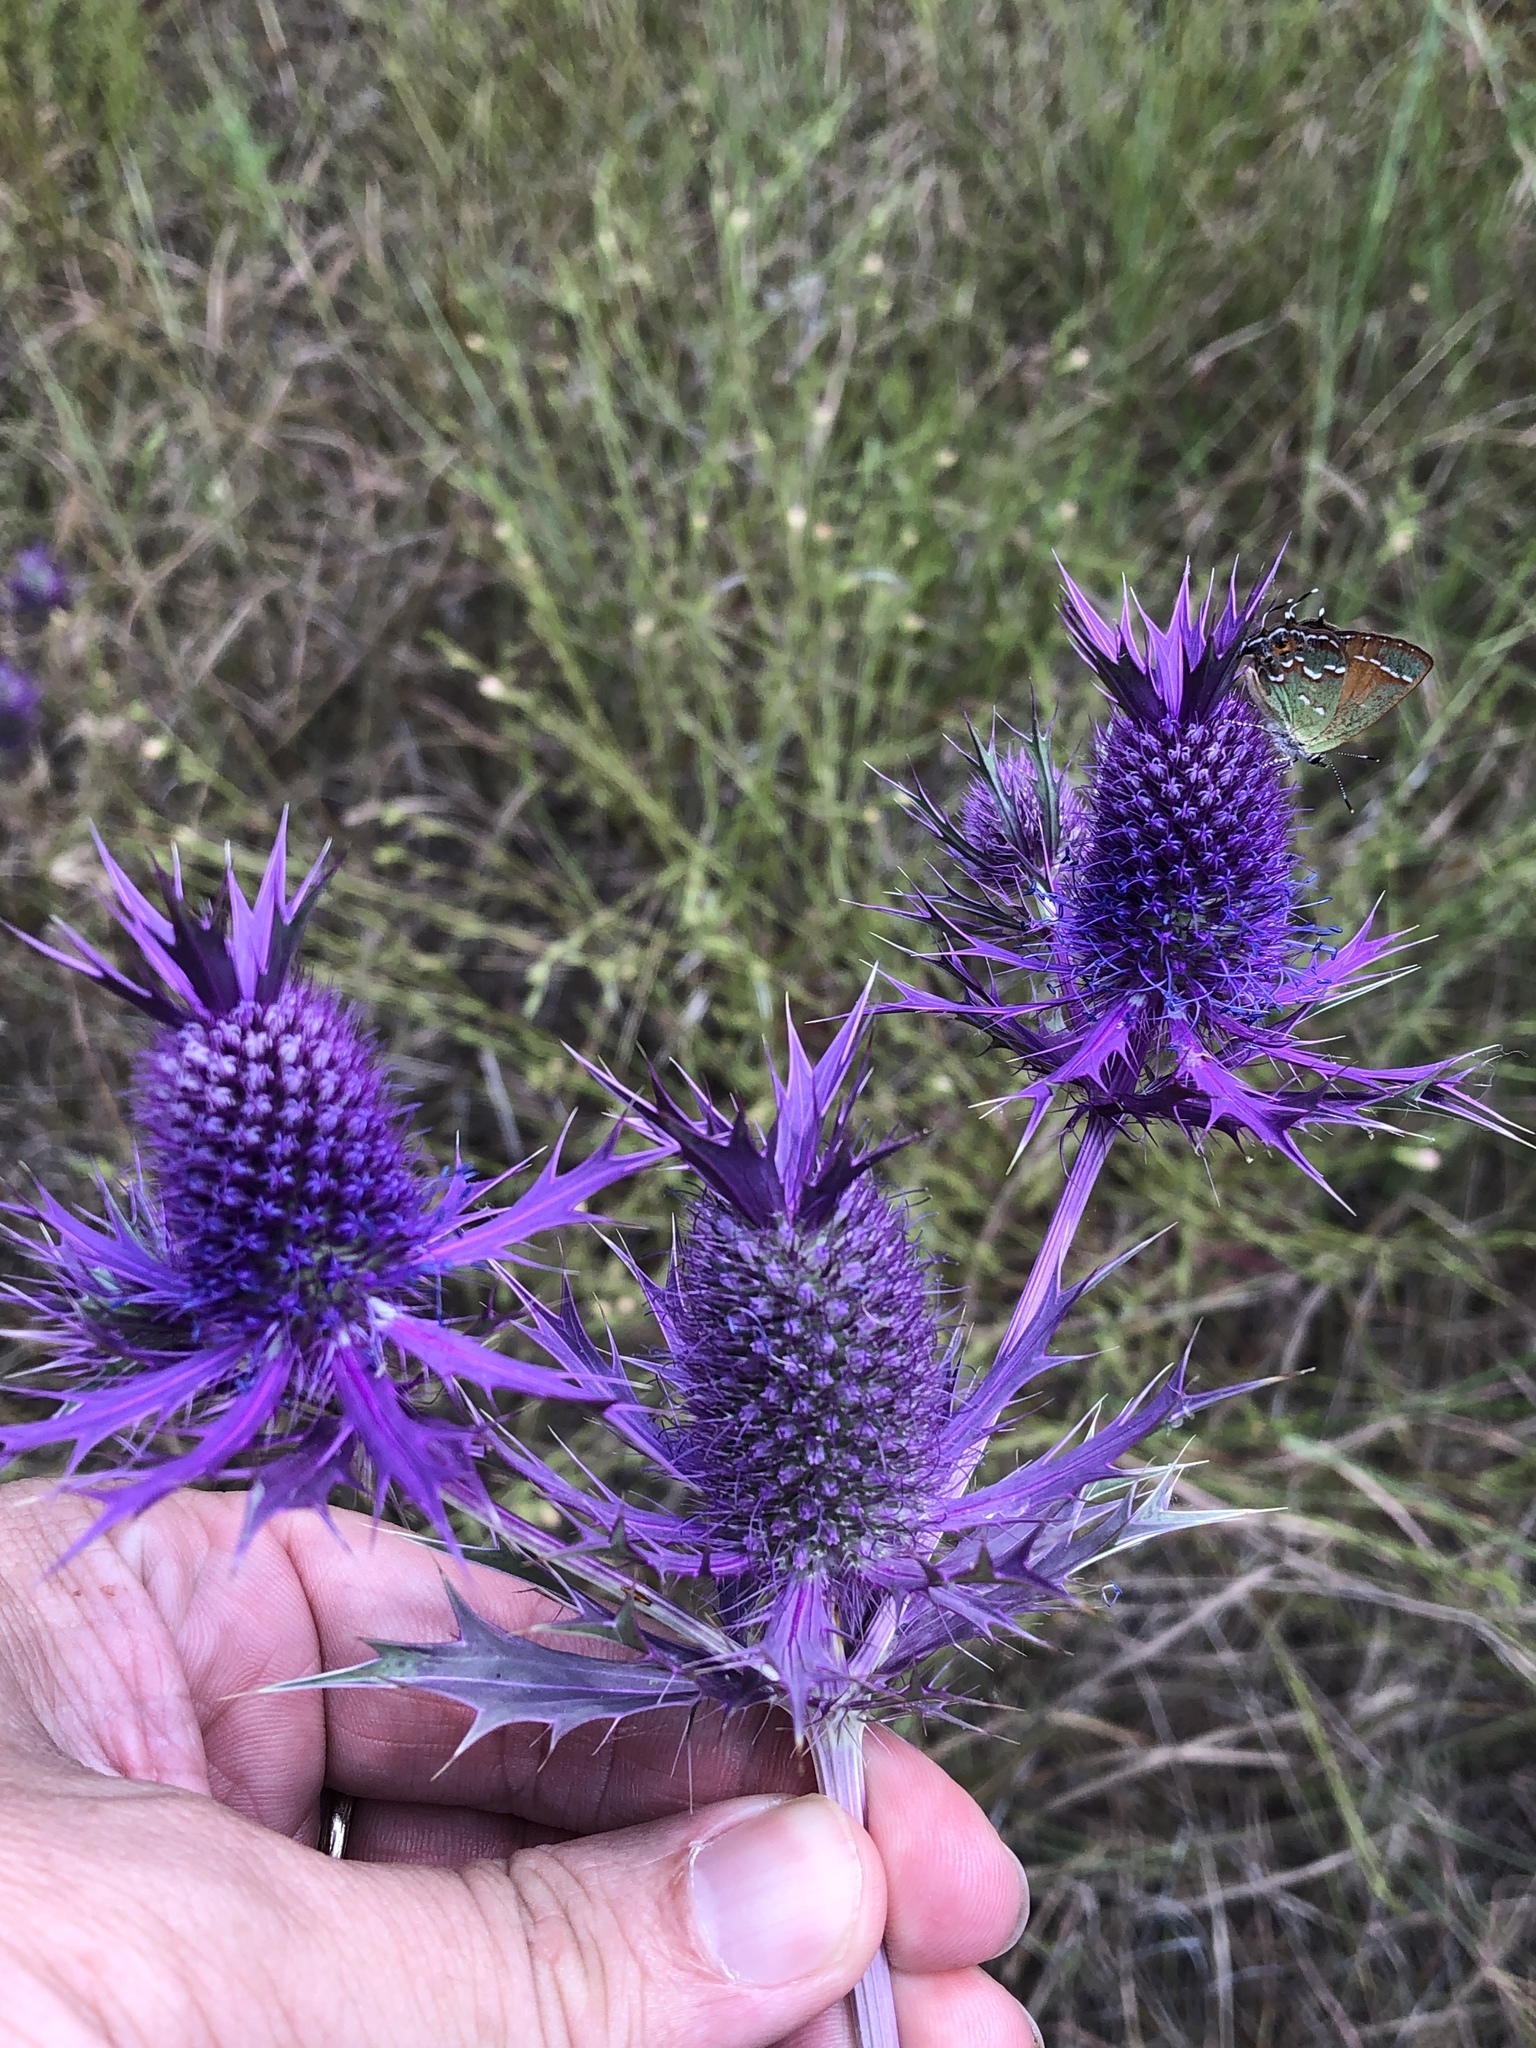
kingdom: Plantae
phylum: Tracheophyta
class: Magnoliopsida
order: Apiales
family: Apiaceae
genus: Eryngium
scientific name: Eryngium leavenworthii
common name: Leavenworth's eryngo
